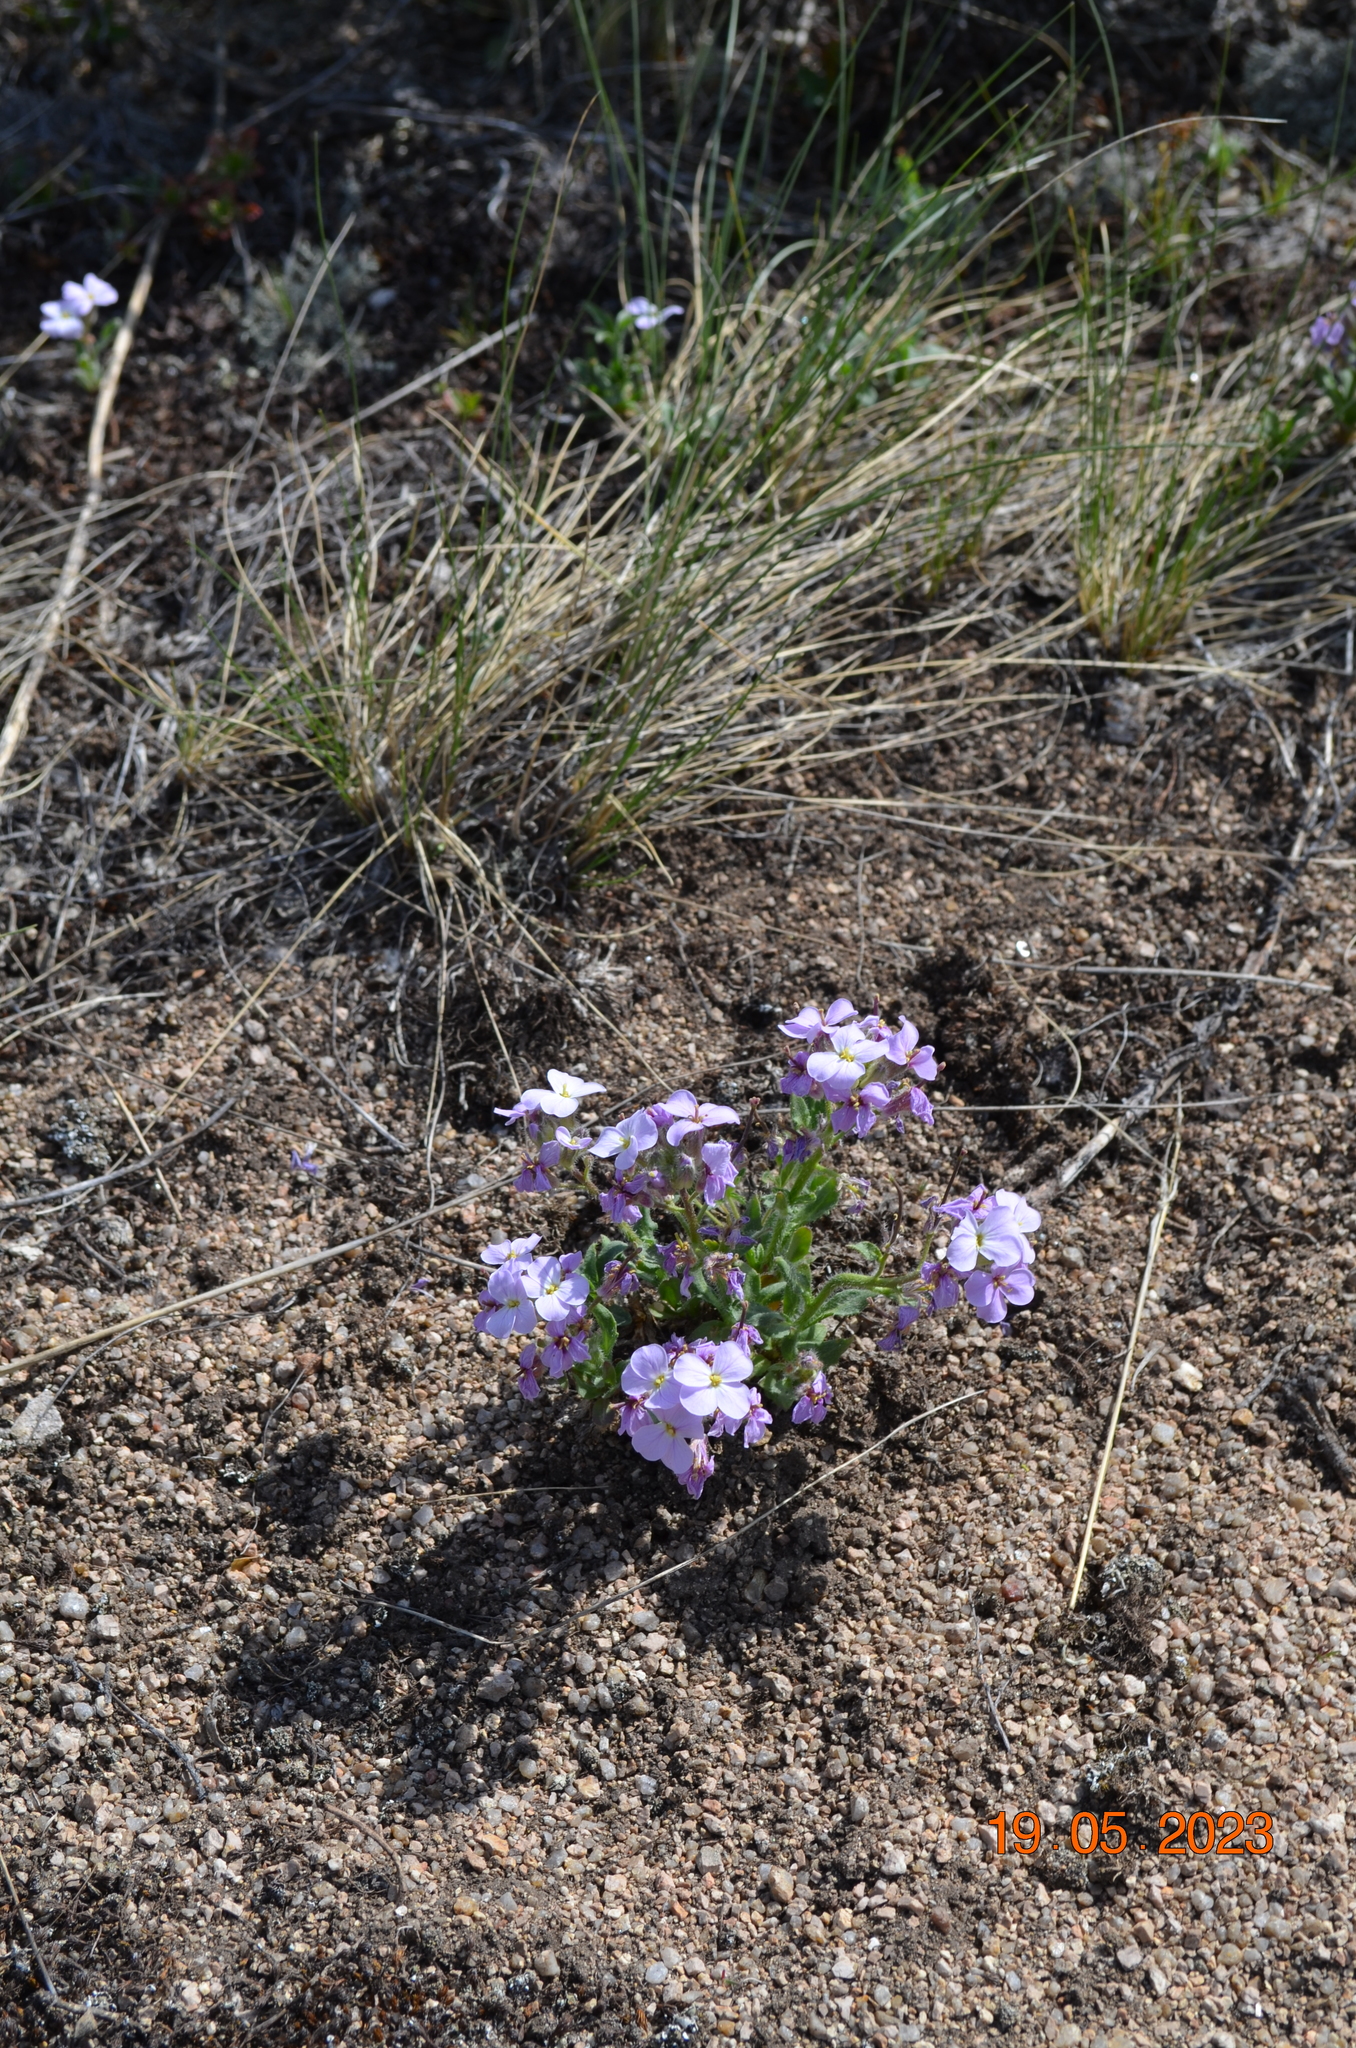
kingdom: Plantae
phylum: Tracheophyta
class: Magnoliopsida
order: Brassicales
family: Brassicaceae
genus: Clausia
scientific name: Clausia aprica
